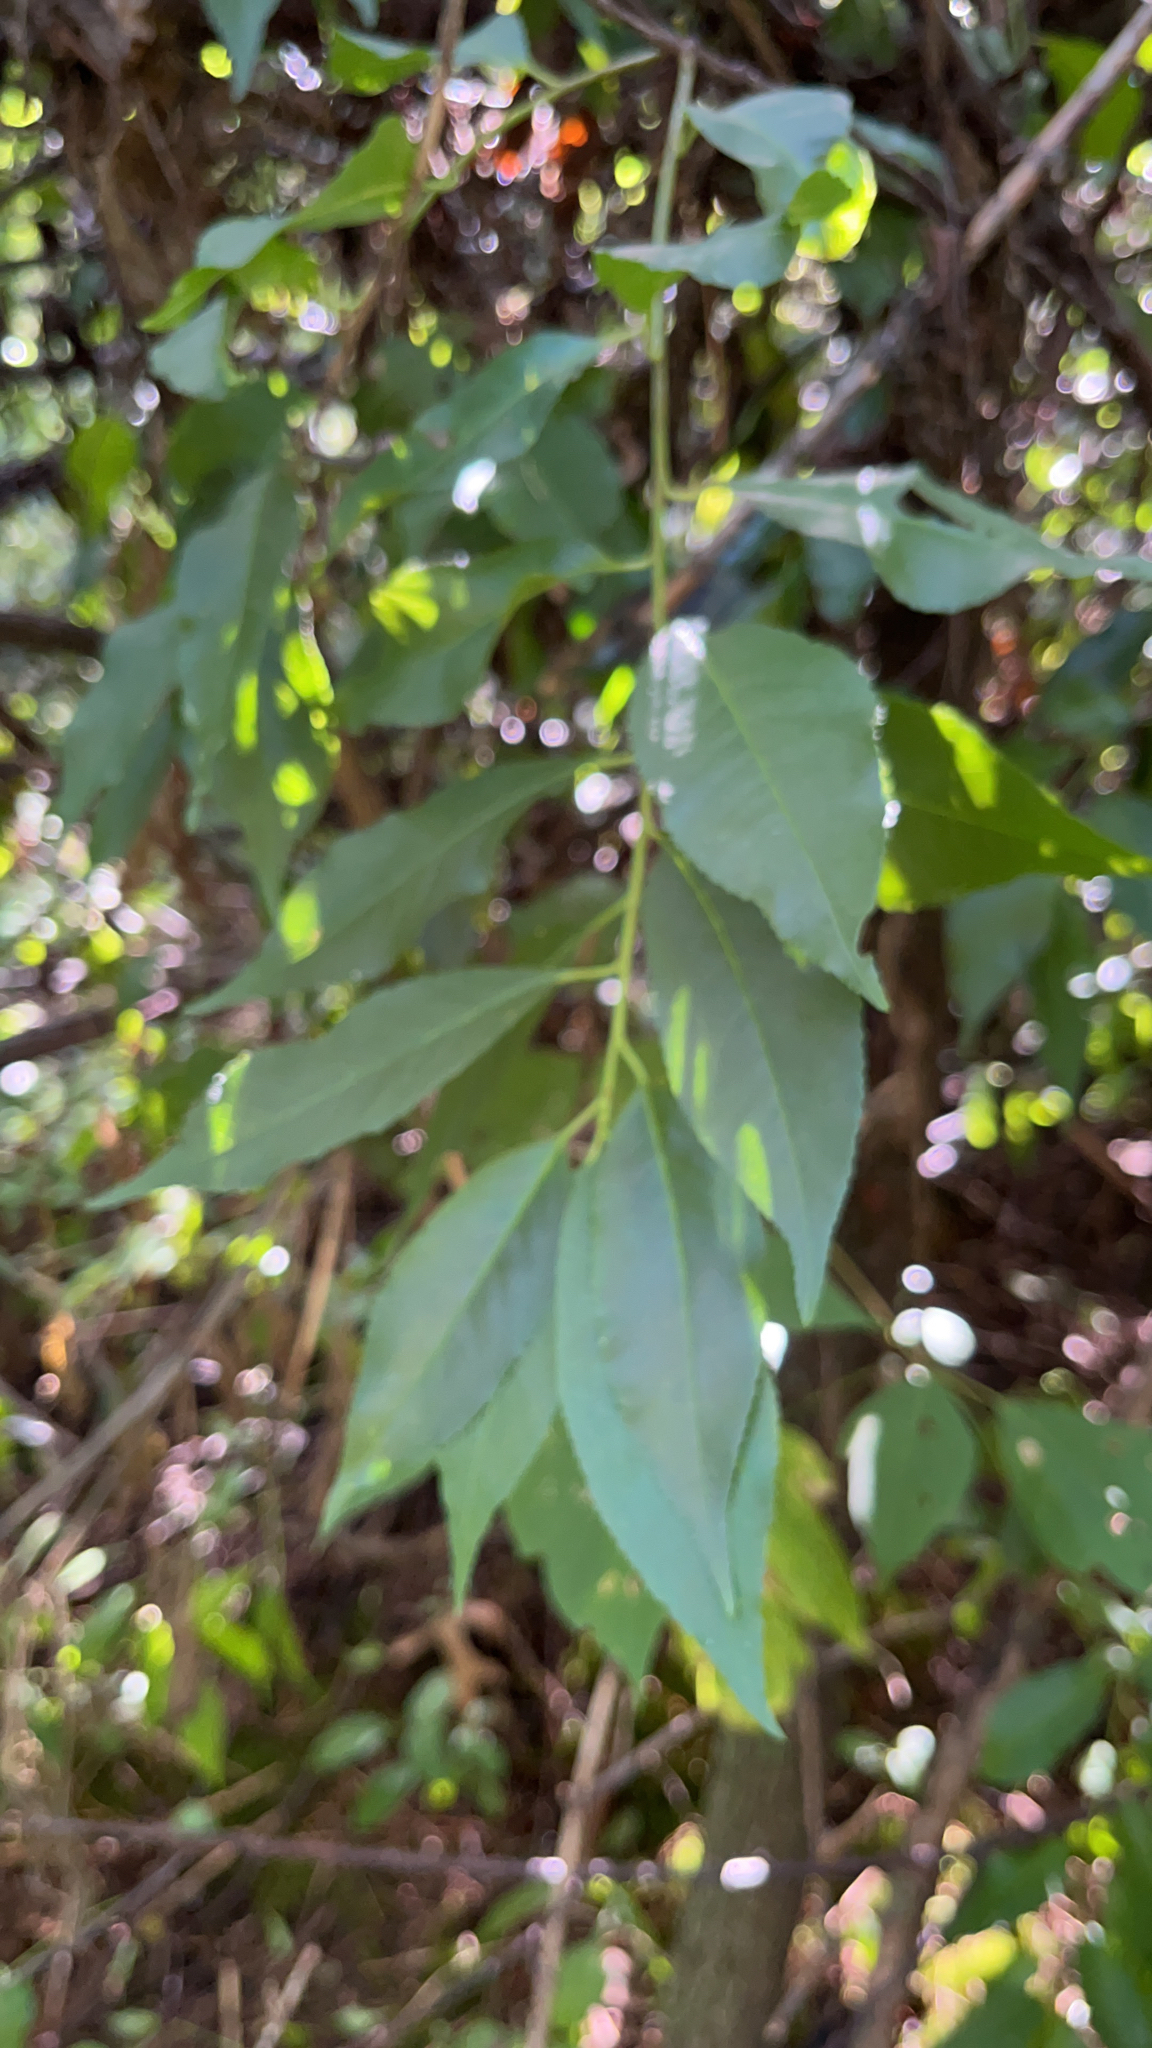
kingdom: Plantae
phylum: Tracheophyta
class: Magnoliopsida
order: Rosales
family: Rosaceae
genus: Prunus
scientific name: Prunus serotina
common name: Black cherry
